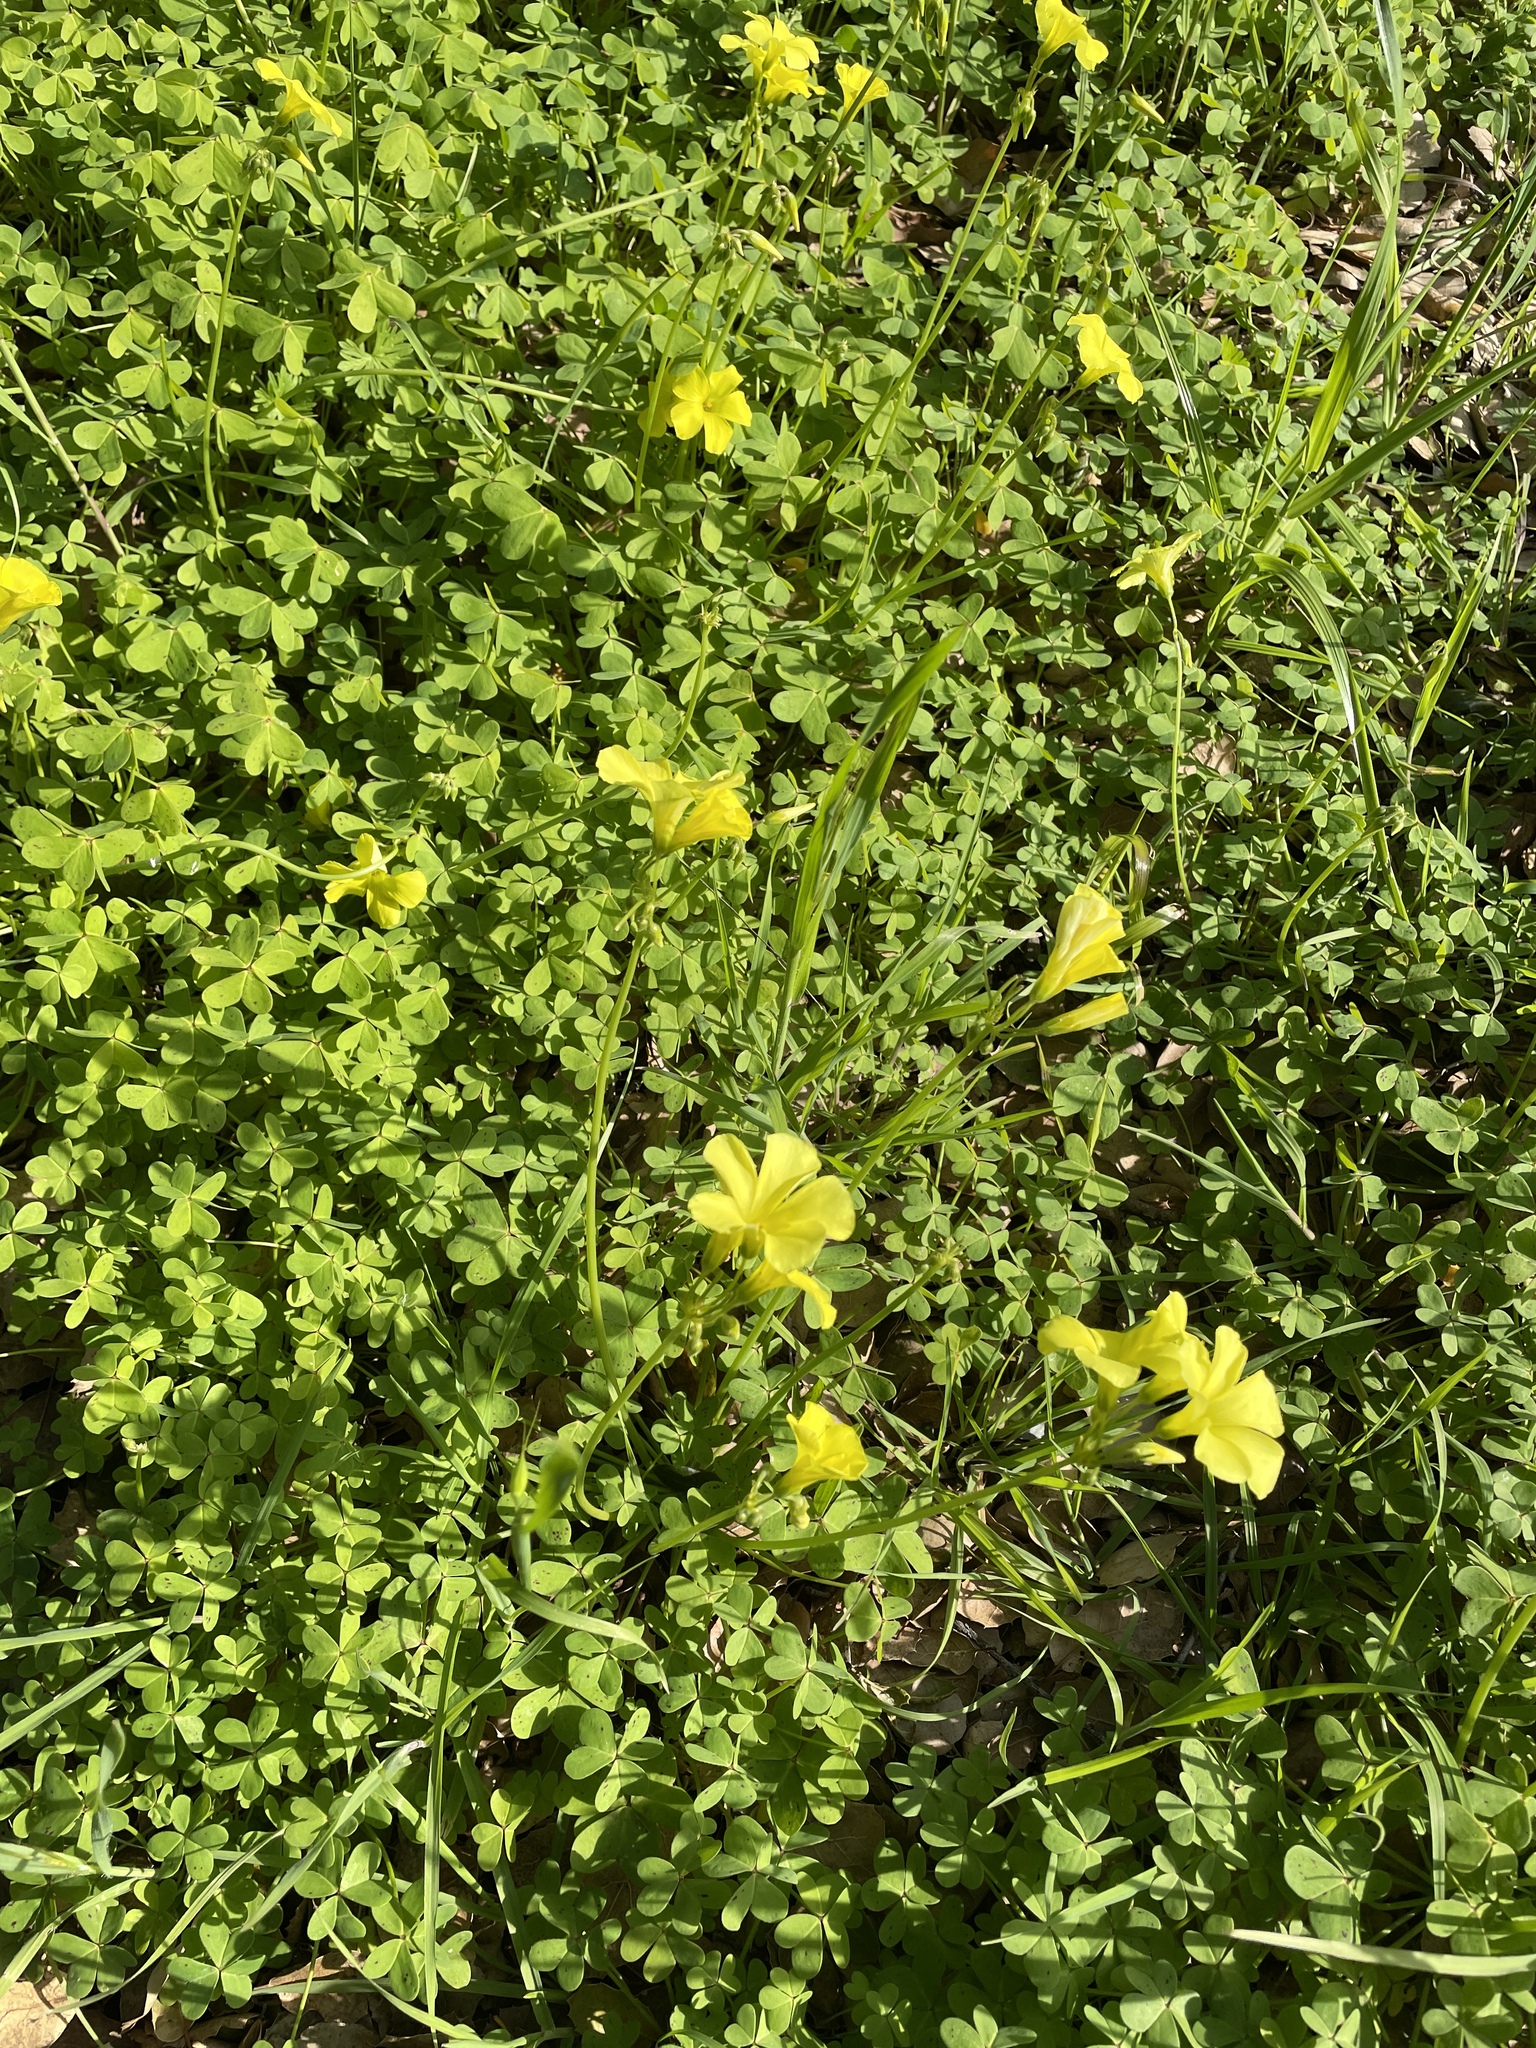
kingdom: Plantae
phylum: Tracheophyta
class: Magnoliopsida
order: Oxalidales
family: Oxalidaceae
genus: Oxalis
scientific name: Oxalis pes-caprae
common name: Bermuda-buttercup
